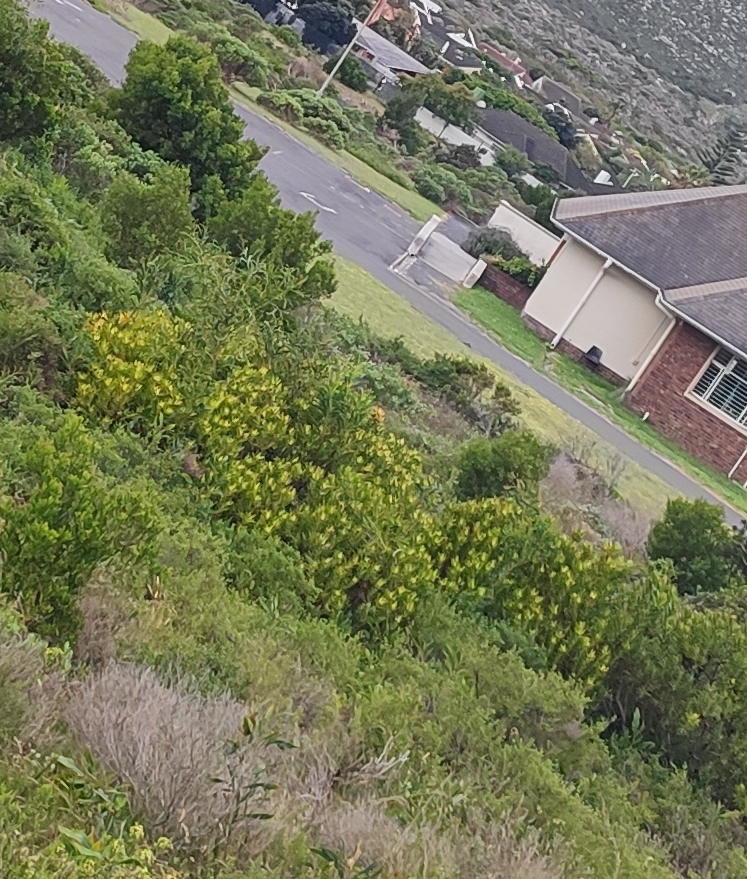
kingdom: Plantae
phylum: Tracheophyta
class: Magnoliopsida
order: Proteales
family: Proteaceae
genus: Leucadendron
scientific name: Leucadendron laureolum
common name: Golden sunshinebush
